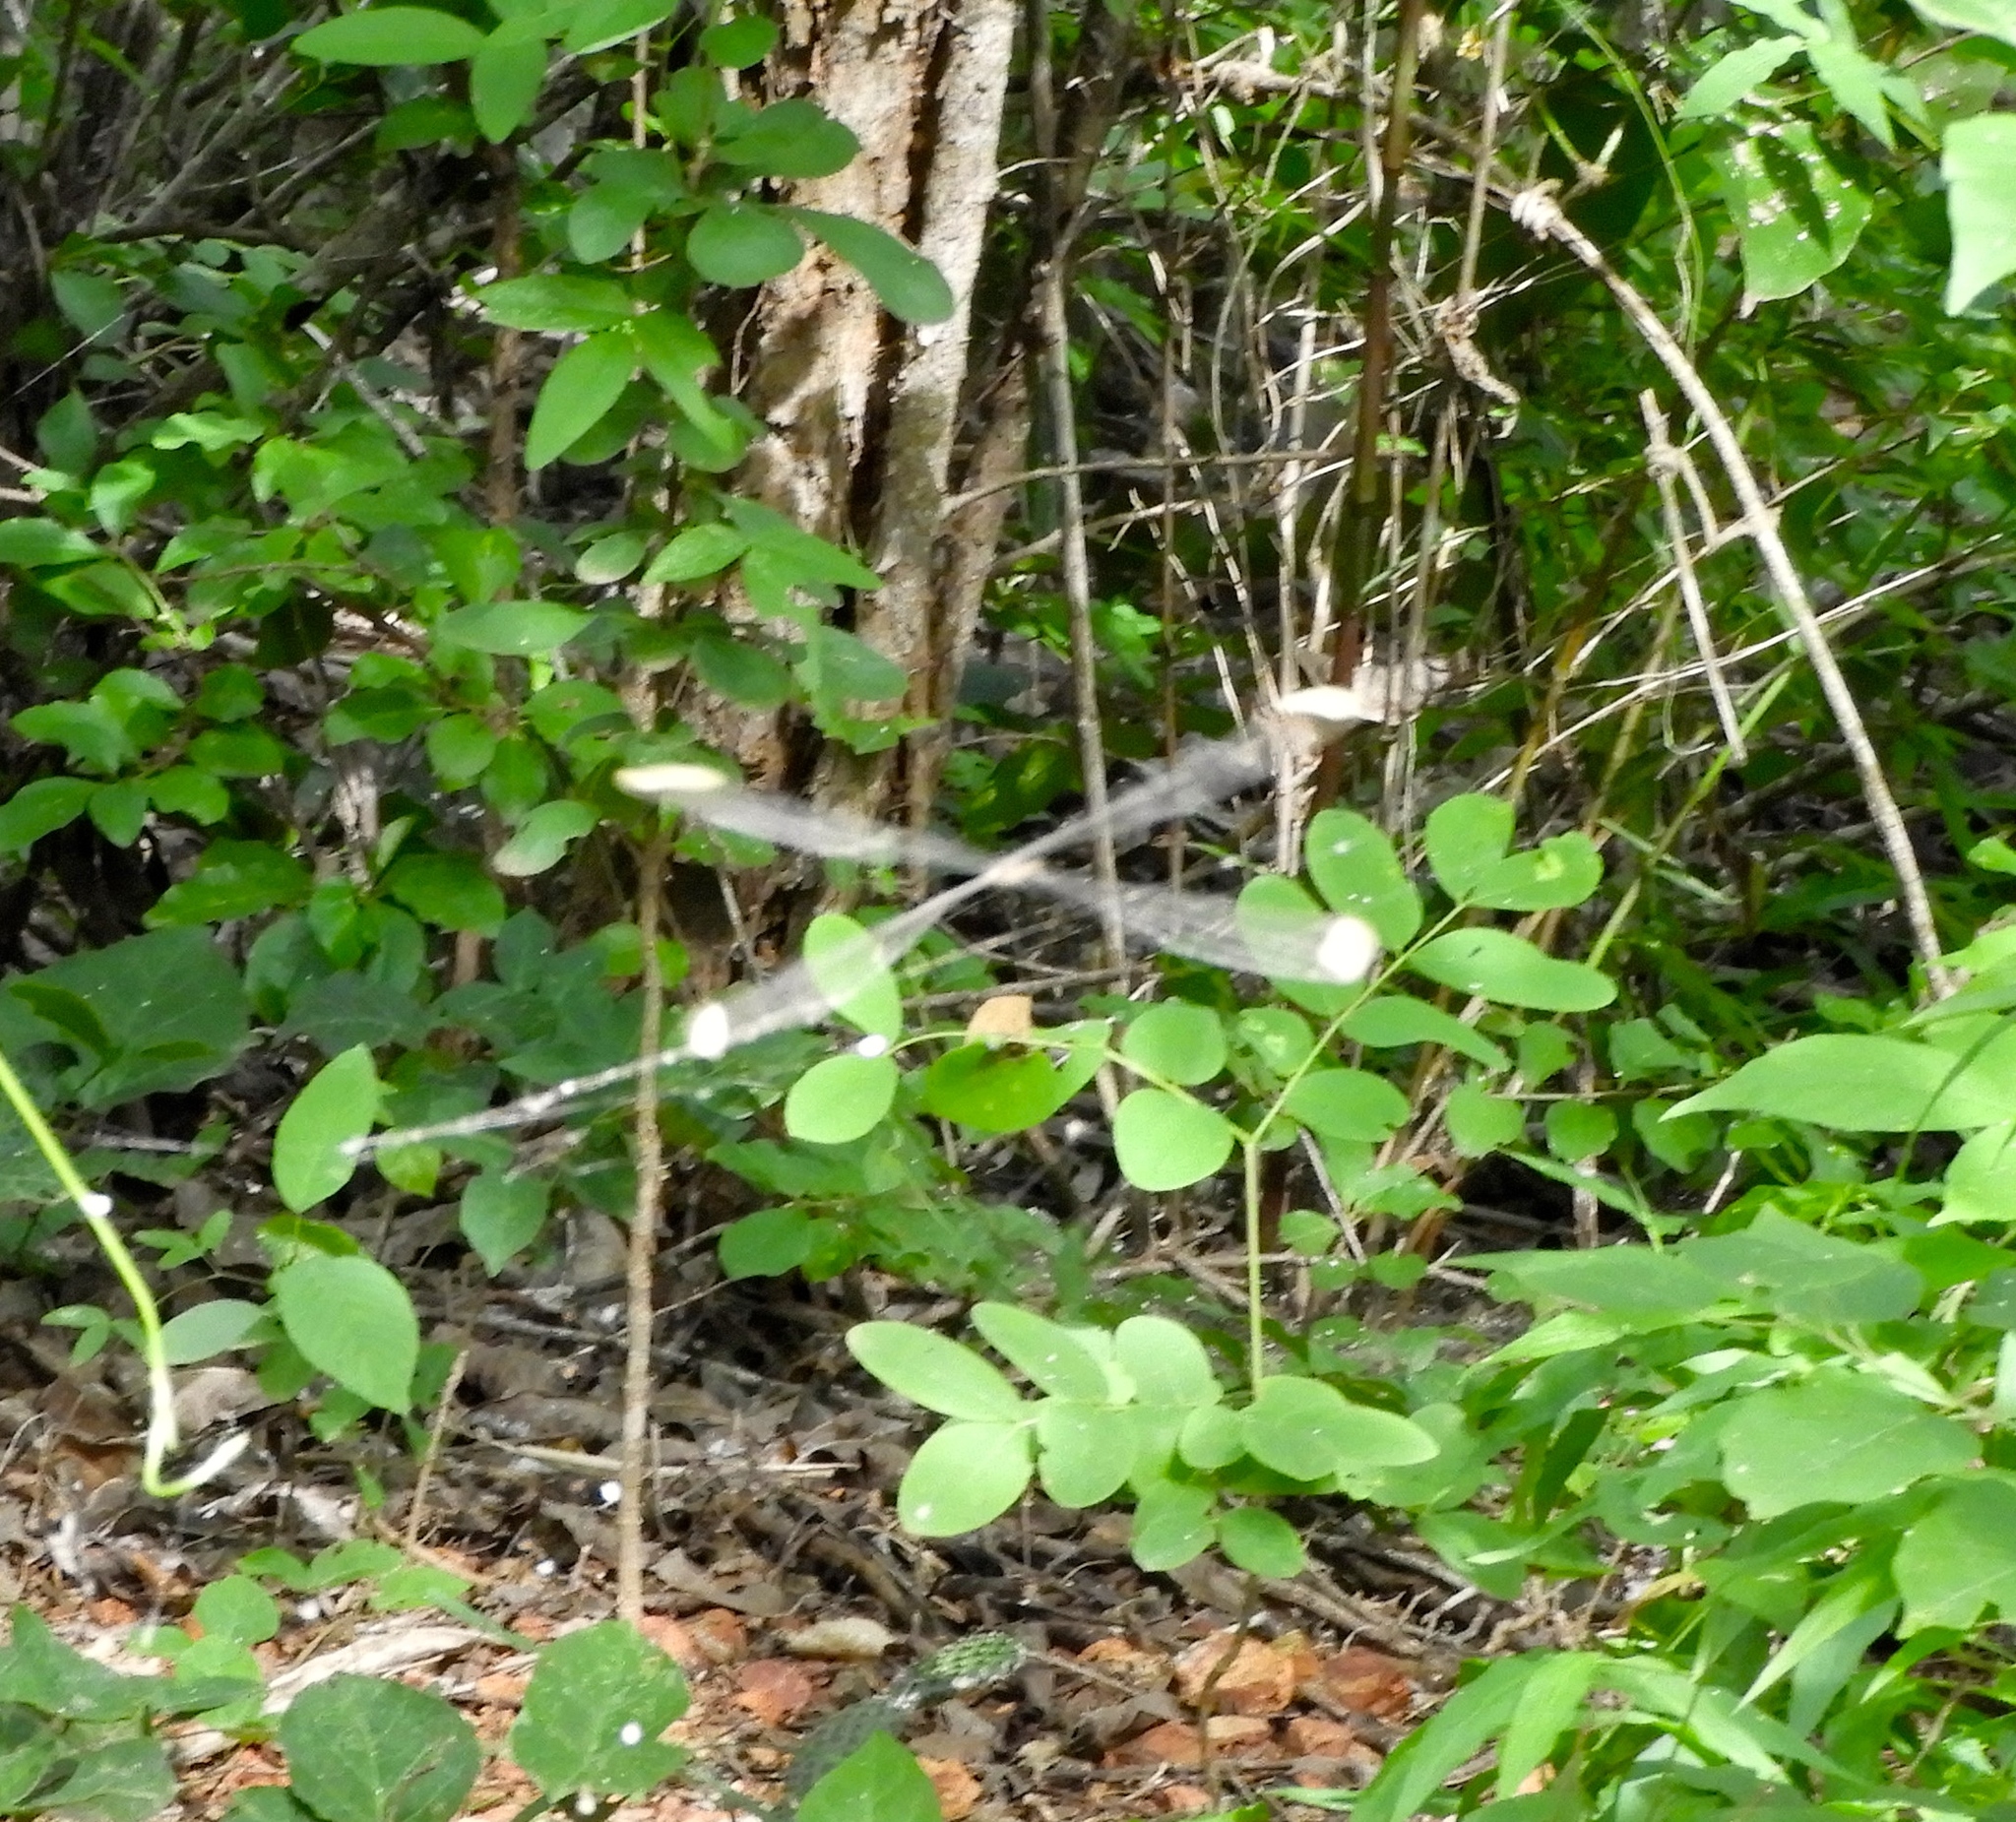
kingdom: Animalia
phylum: Arthropoda
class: Insecta
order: Odonata
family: Coenagrionidae
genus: Mecistogaster
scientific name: Mecistogaster ornata
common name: Ornate helicopter
